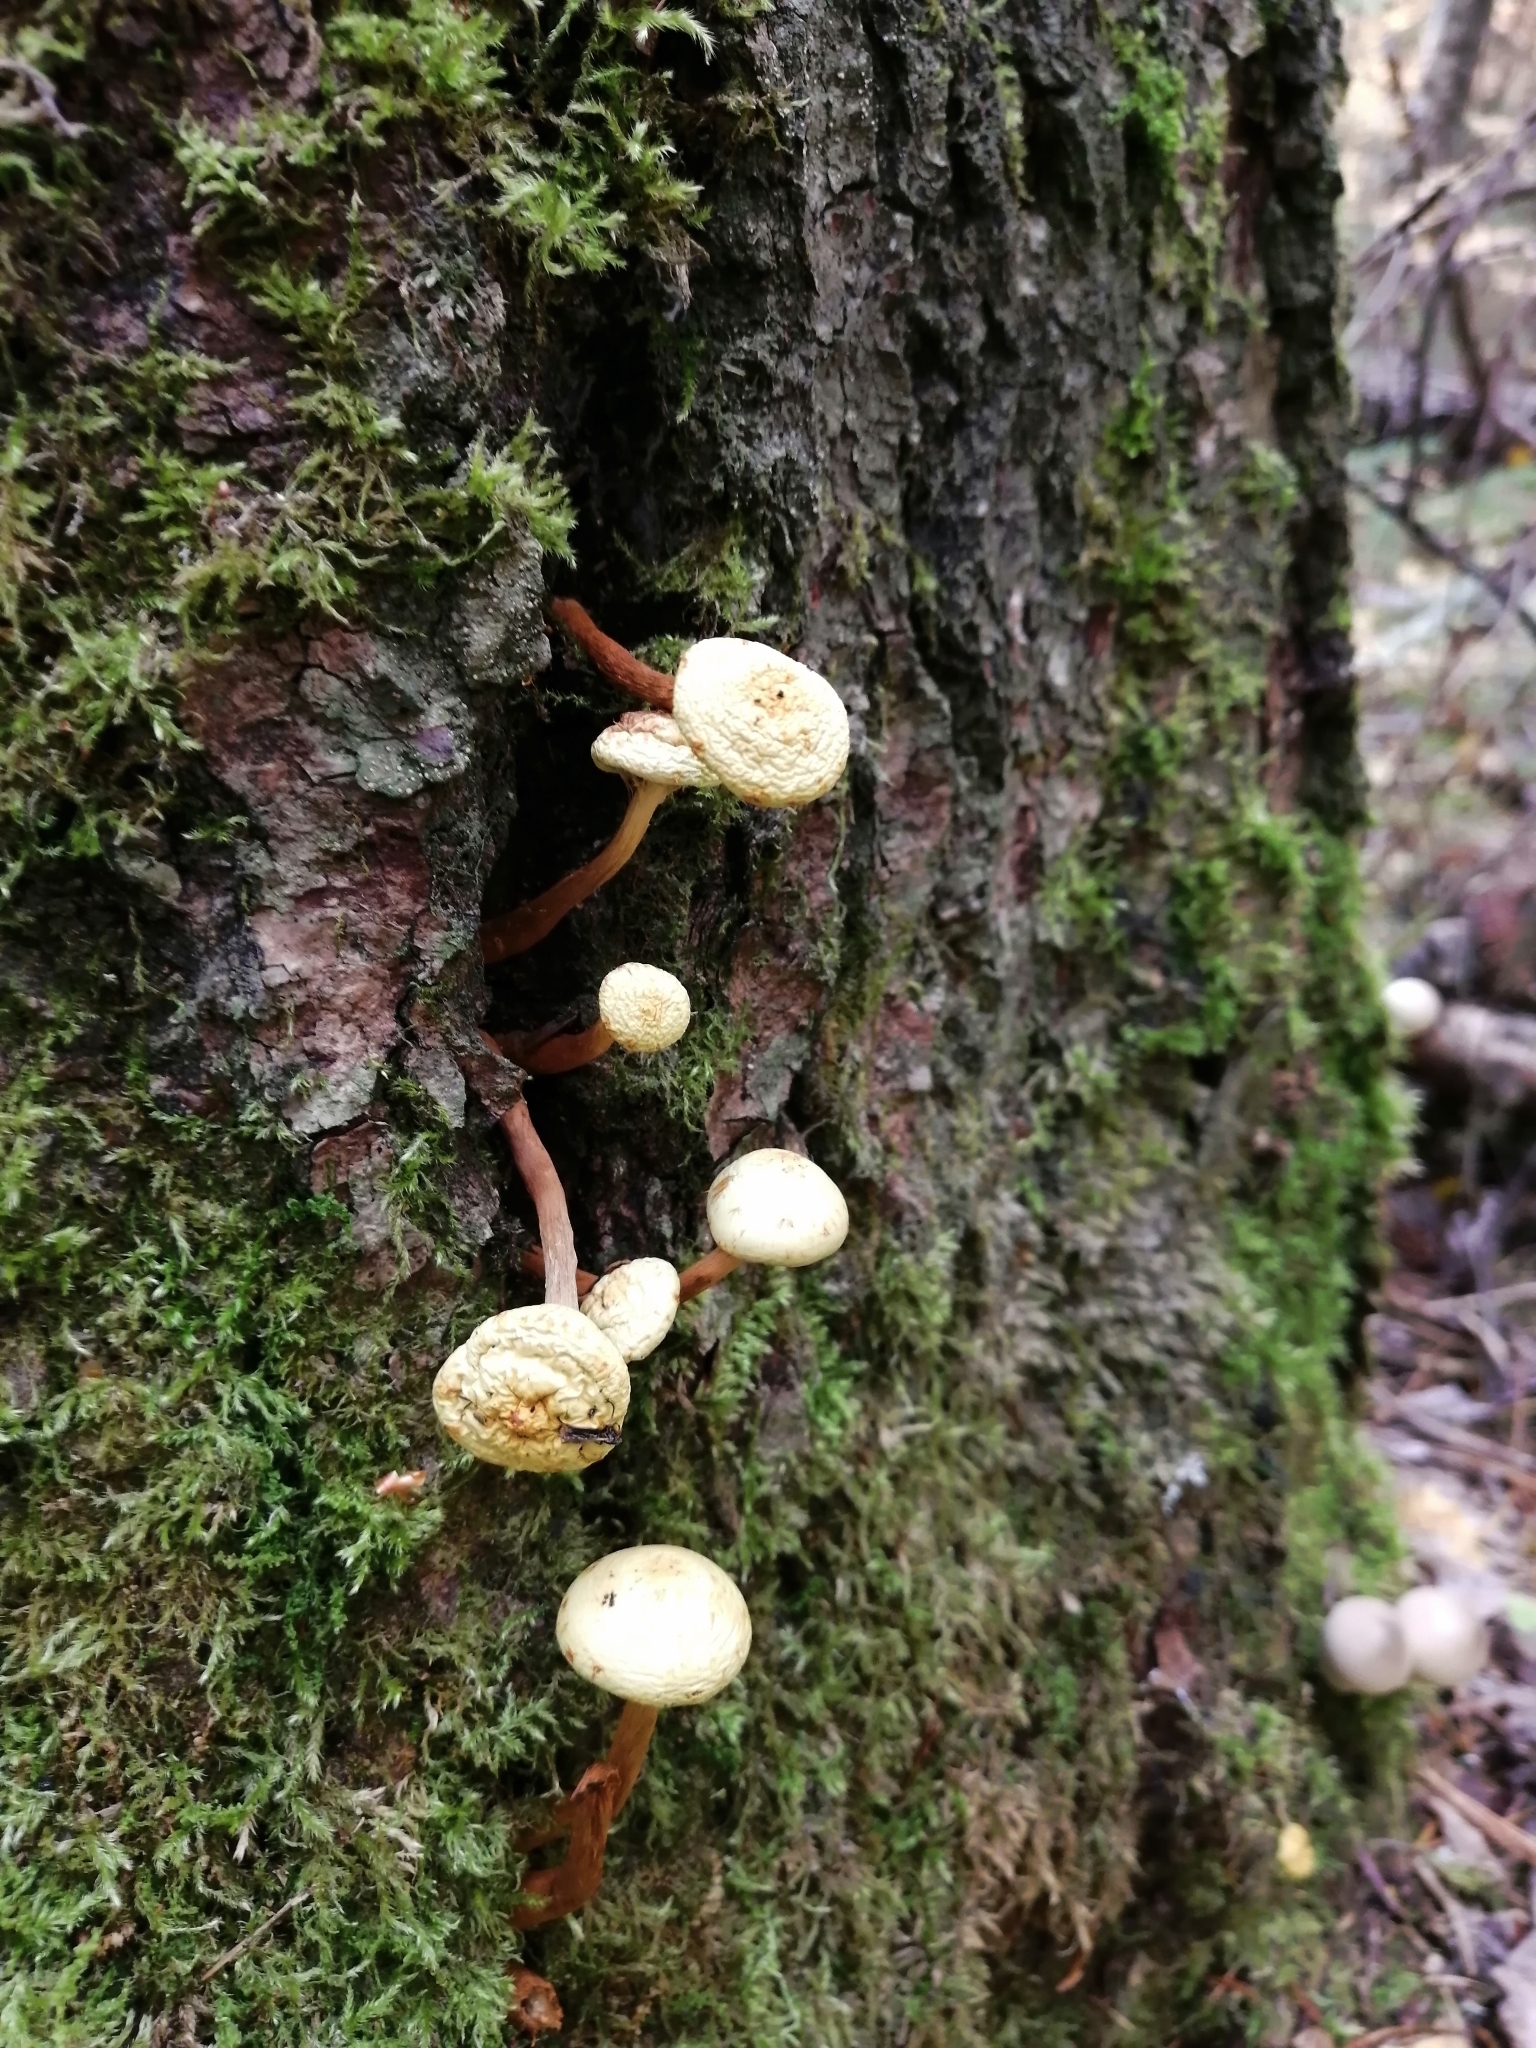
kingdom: Fungi
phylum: Basidiomycota
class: Agaricomycetes
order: Agaricales
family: Hymenogastraceae
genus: Flammula
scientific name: Flammula alnicola
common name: Alder scalycap
